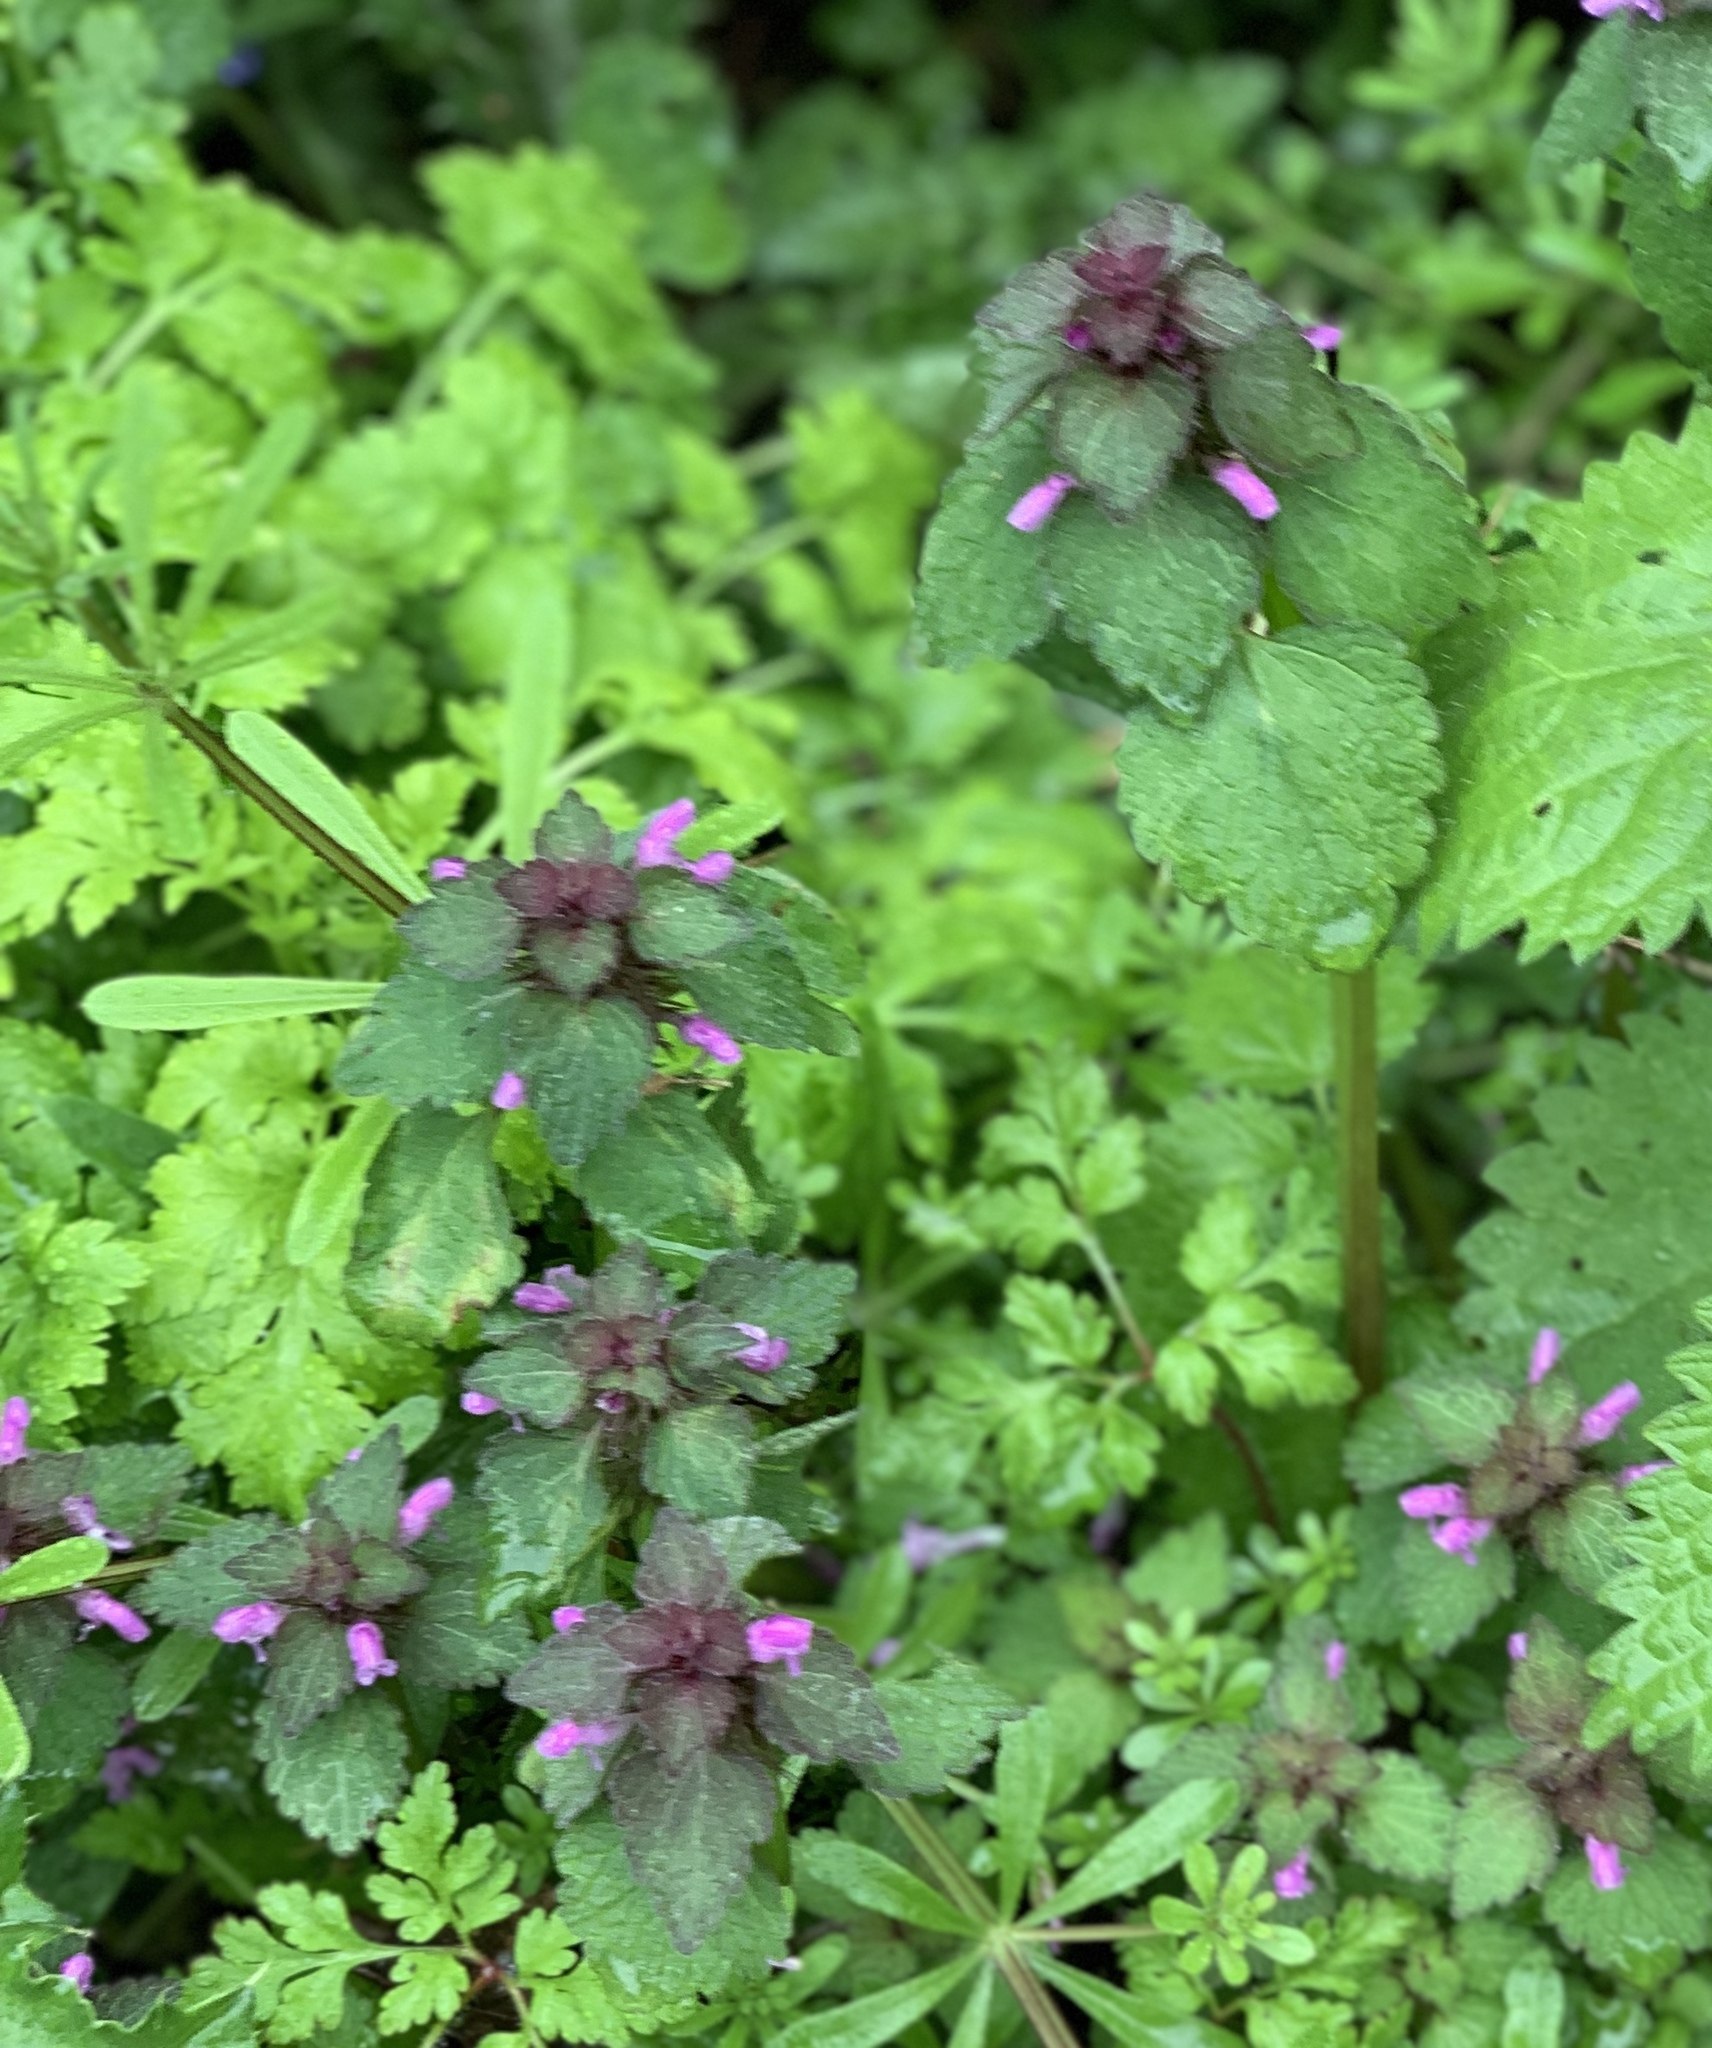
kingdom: Plantae
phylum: Tracheophyta
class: Magnoliopsida
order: Lamiales
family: Lamiaceae
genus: Lamium
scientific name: Lamium purpureum
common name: Red dead-nettle
